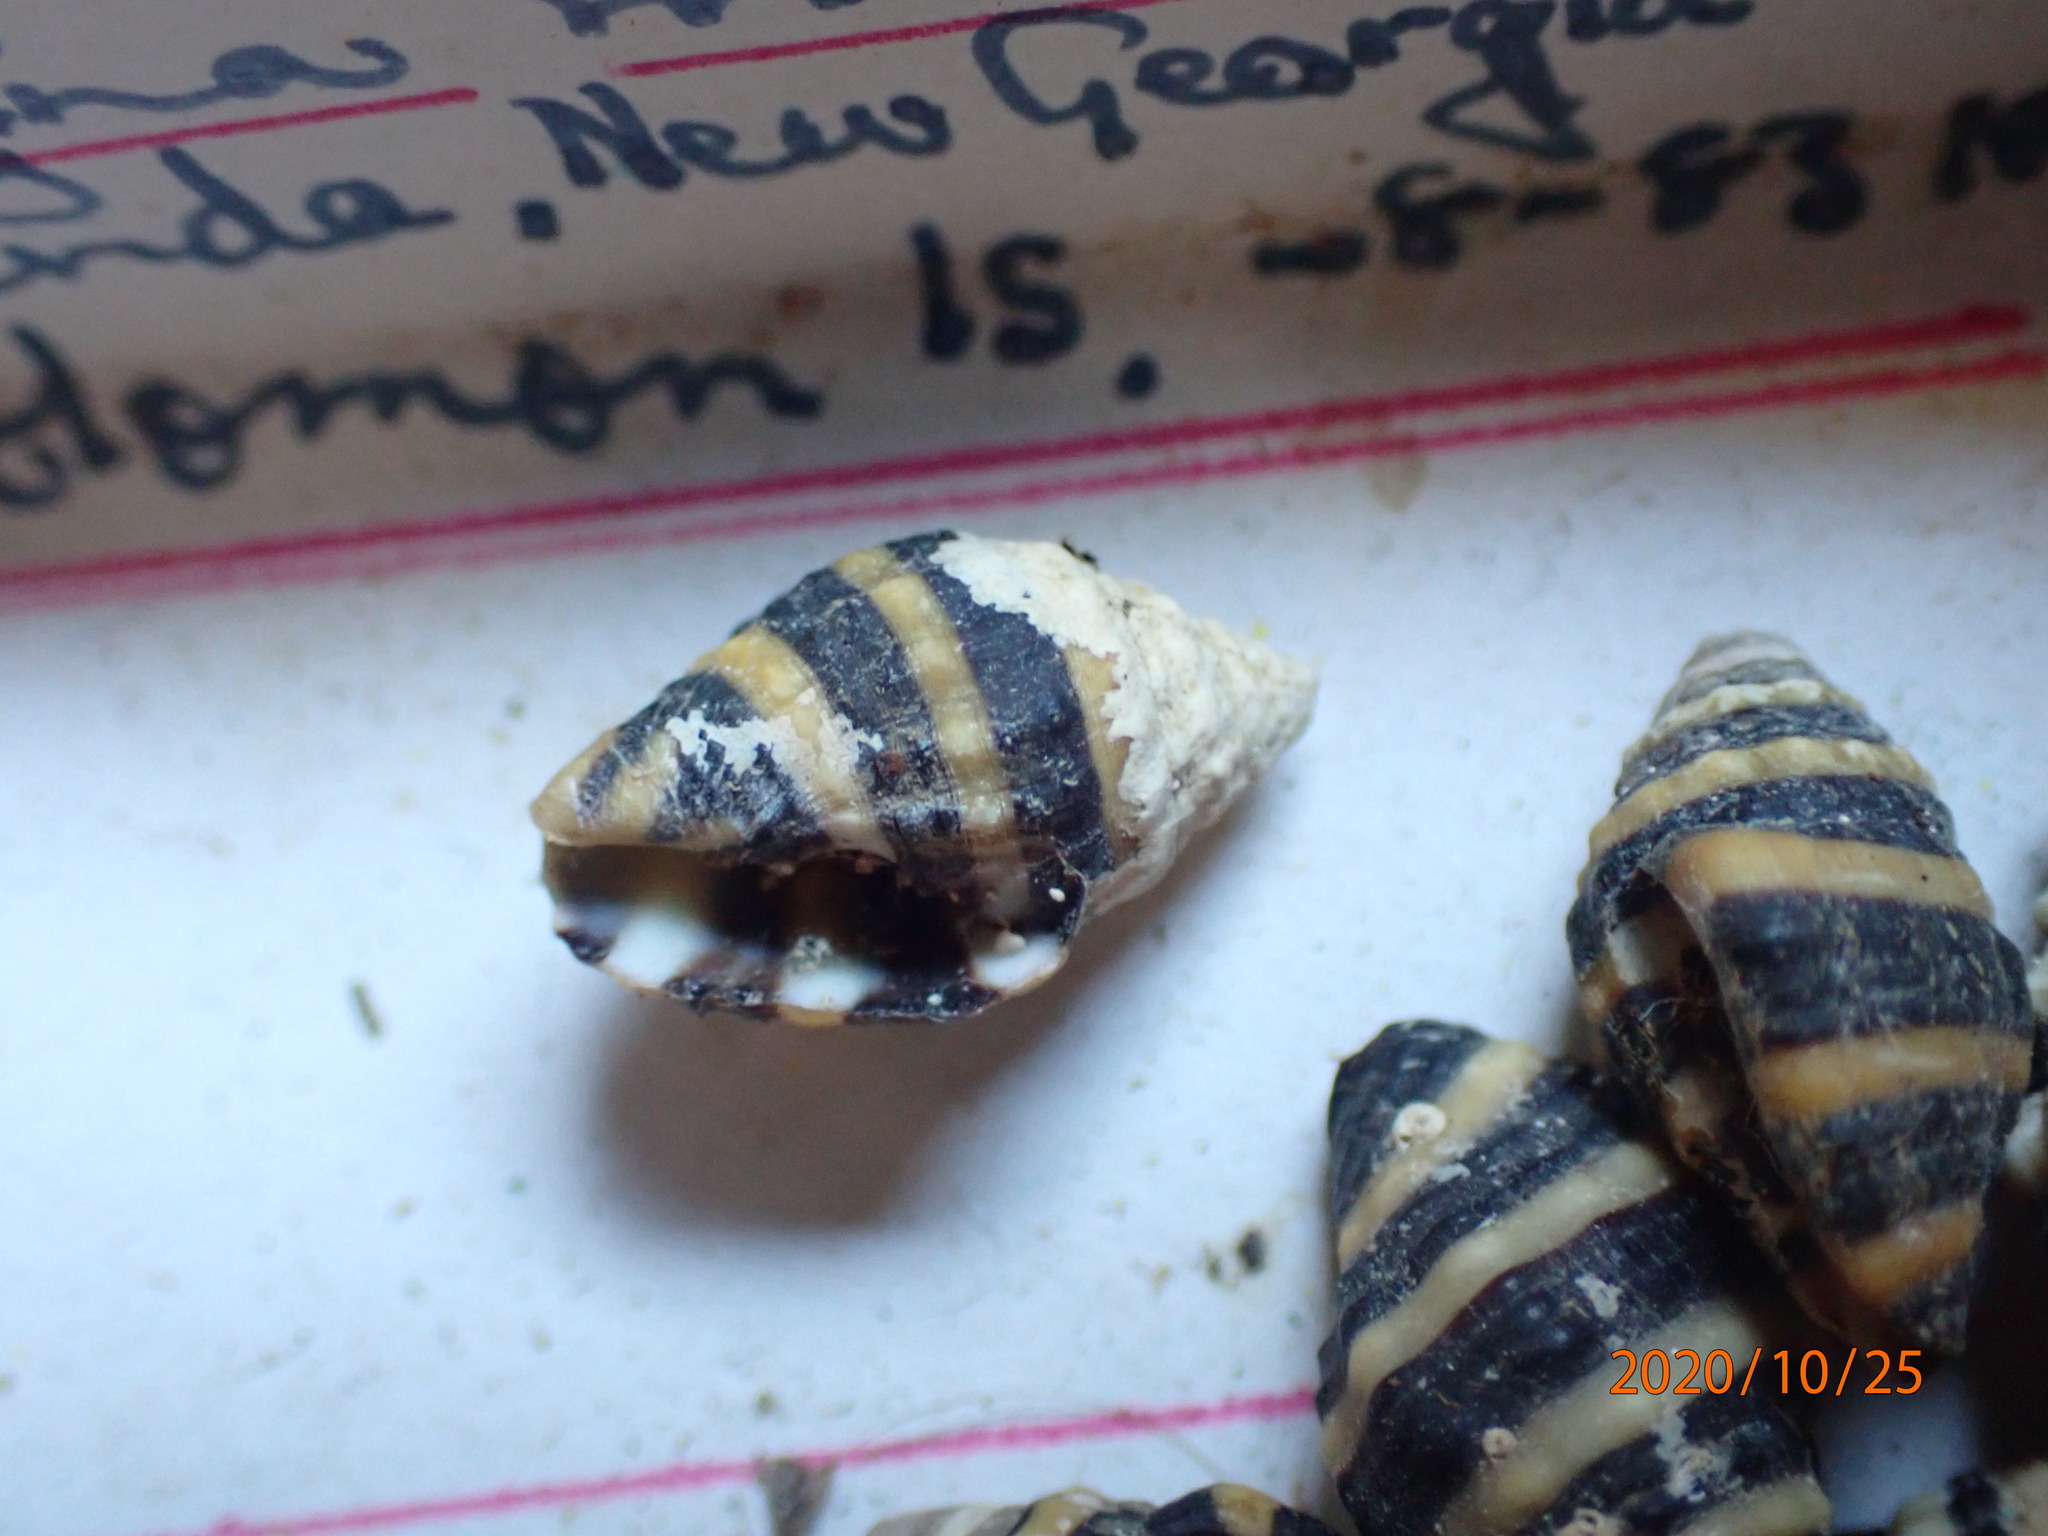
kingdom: Animalia
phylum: Mollusca
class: Gastropoda
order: Neogastropoda
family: Pisaniidae
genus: Engina
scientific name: Engina mendicaria
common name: Bumble bee snail
